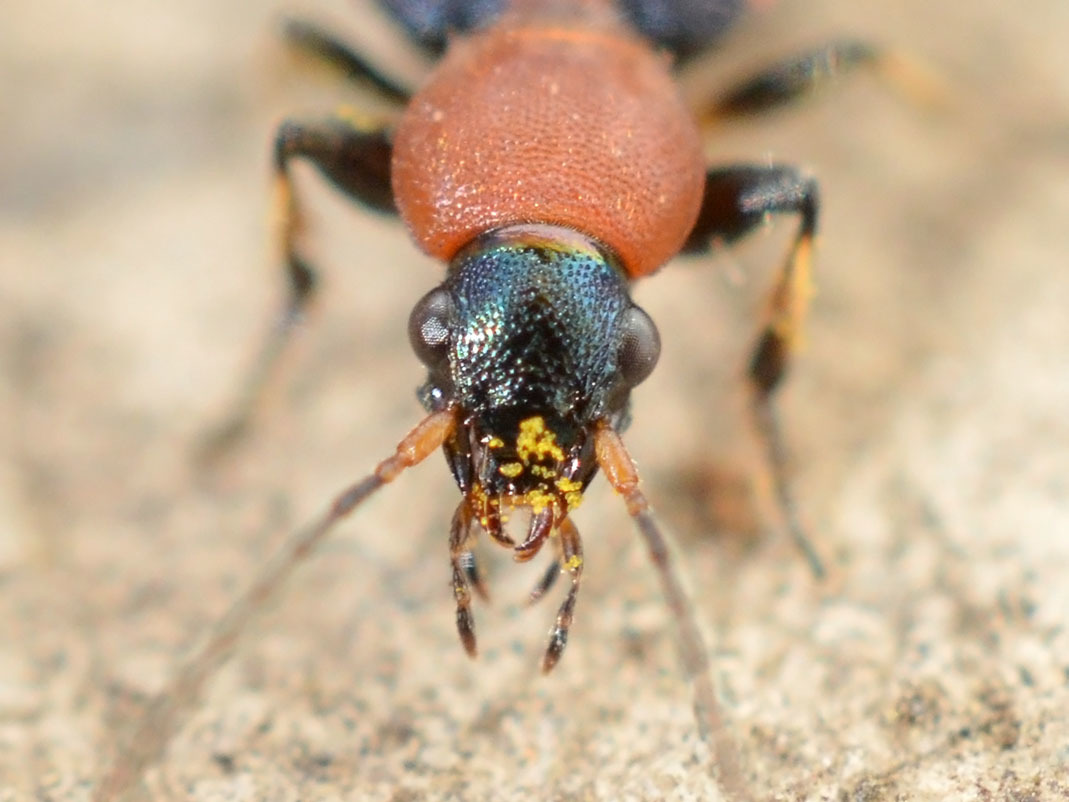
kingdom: Animalia
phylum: Arthropoda
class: Insecta
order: Coleoptera
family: Carabidae
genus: Callistus
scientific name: Callistus lunatus
